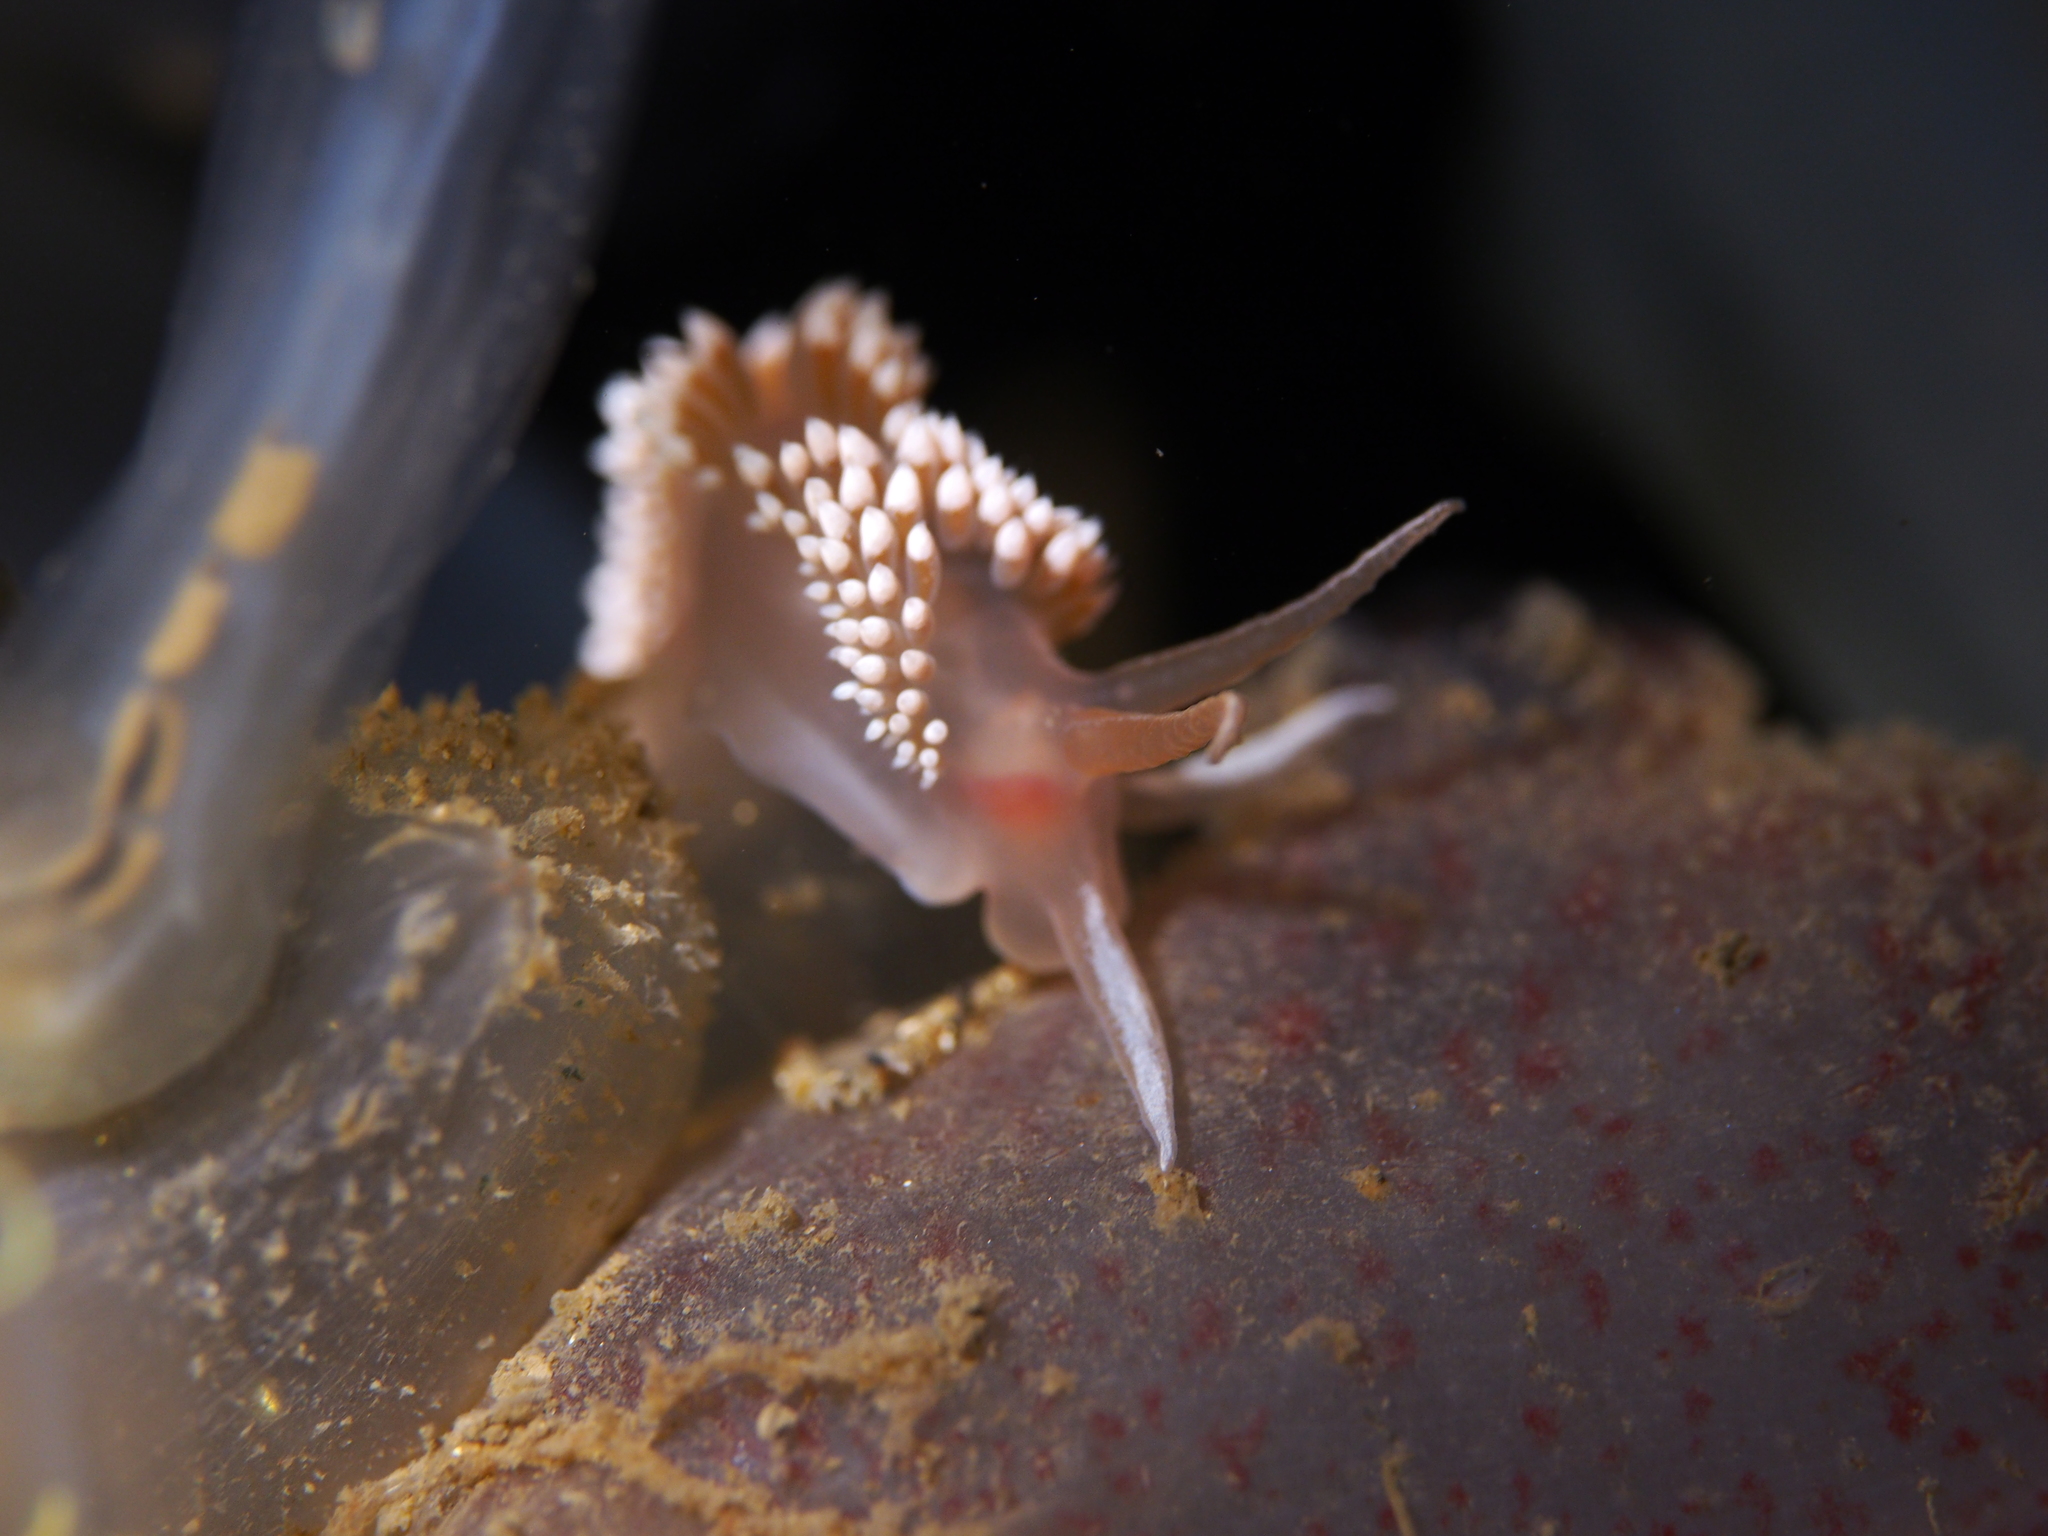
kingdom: Animalia
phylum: Mollusca
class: Gastropoda
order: Nudibranchia
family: Coryphellidae
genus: Coryphella
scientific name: Coryphella verrucosa
